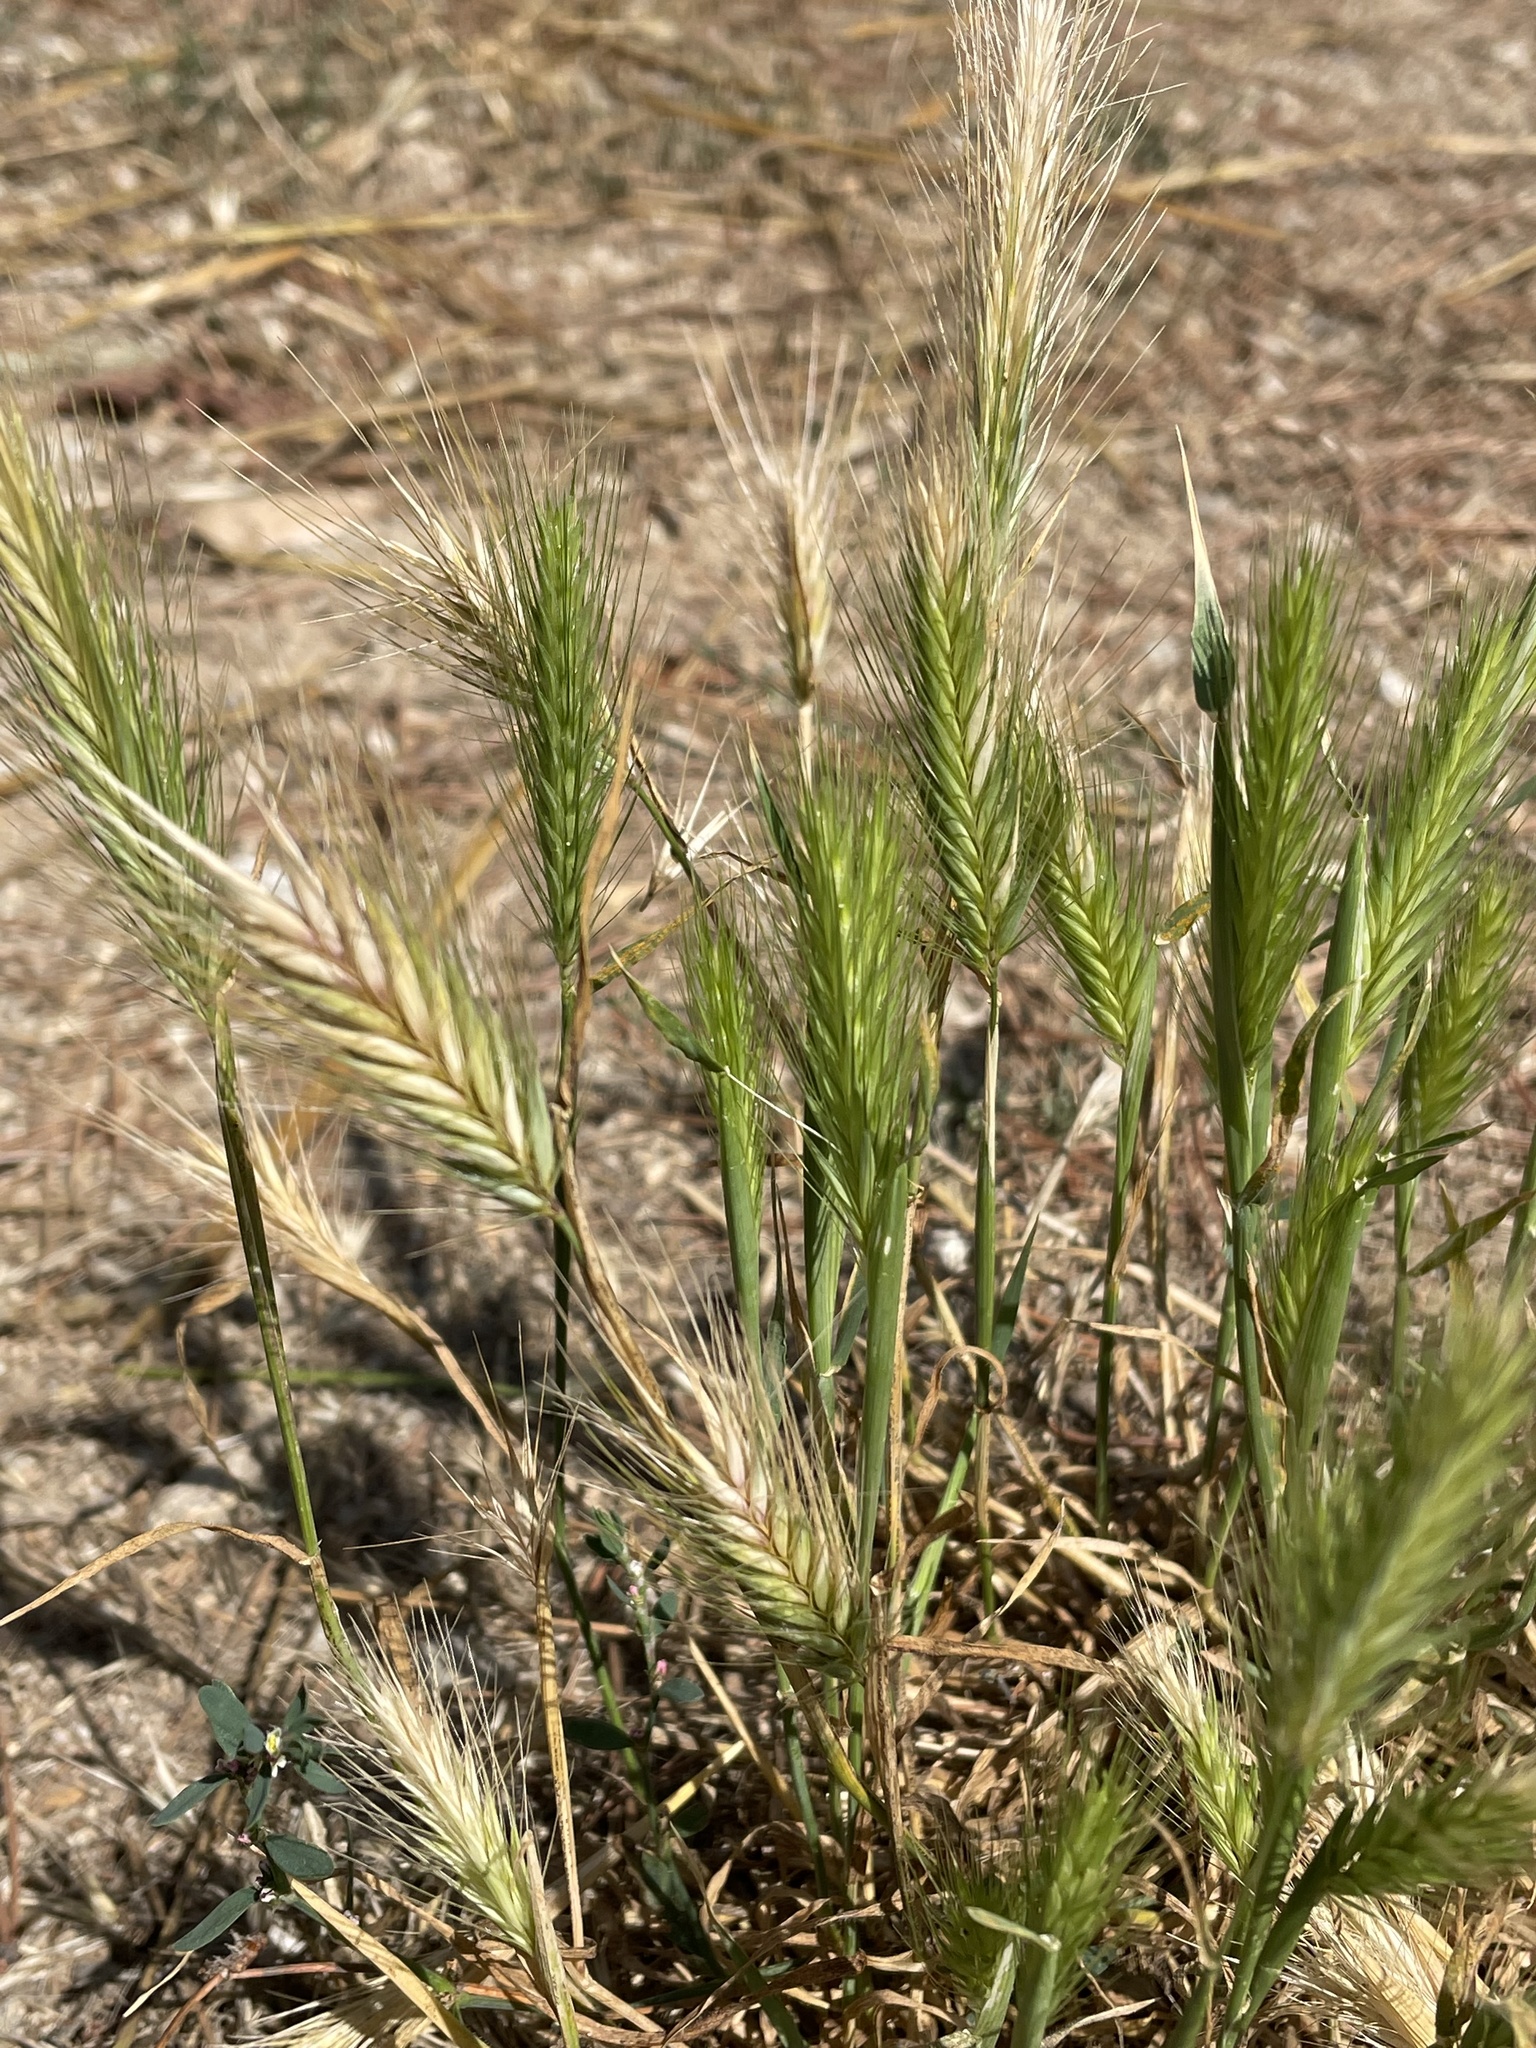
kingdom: Plantae
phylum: Tracheophyta
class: Liliopsida
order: Poales
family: Poaceae
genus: Hordeum
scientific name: Hordeum murinum
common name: Wall barley
